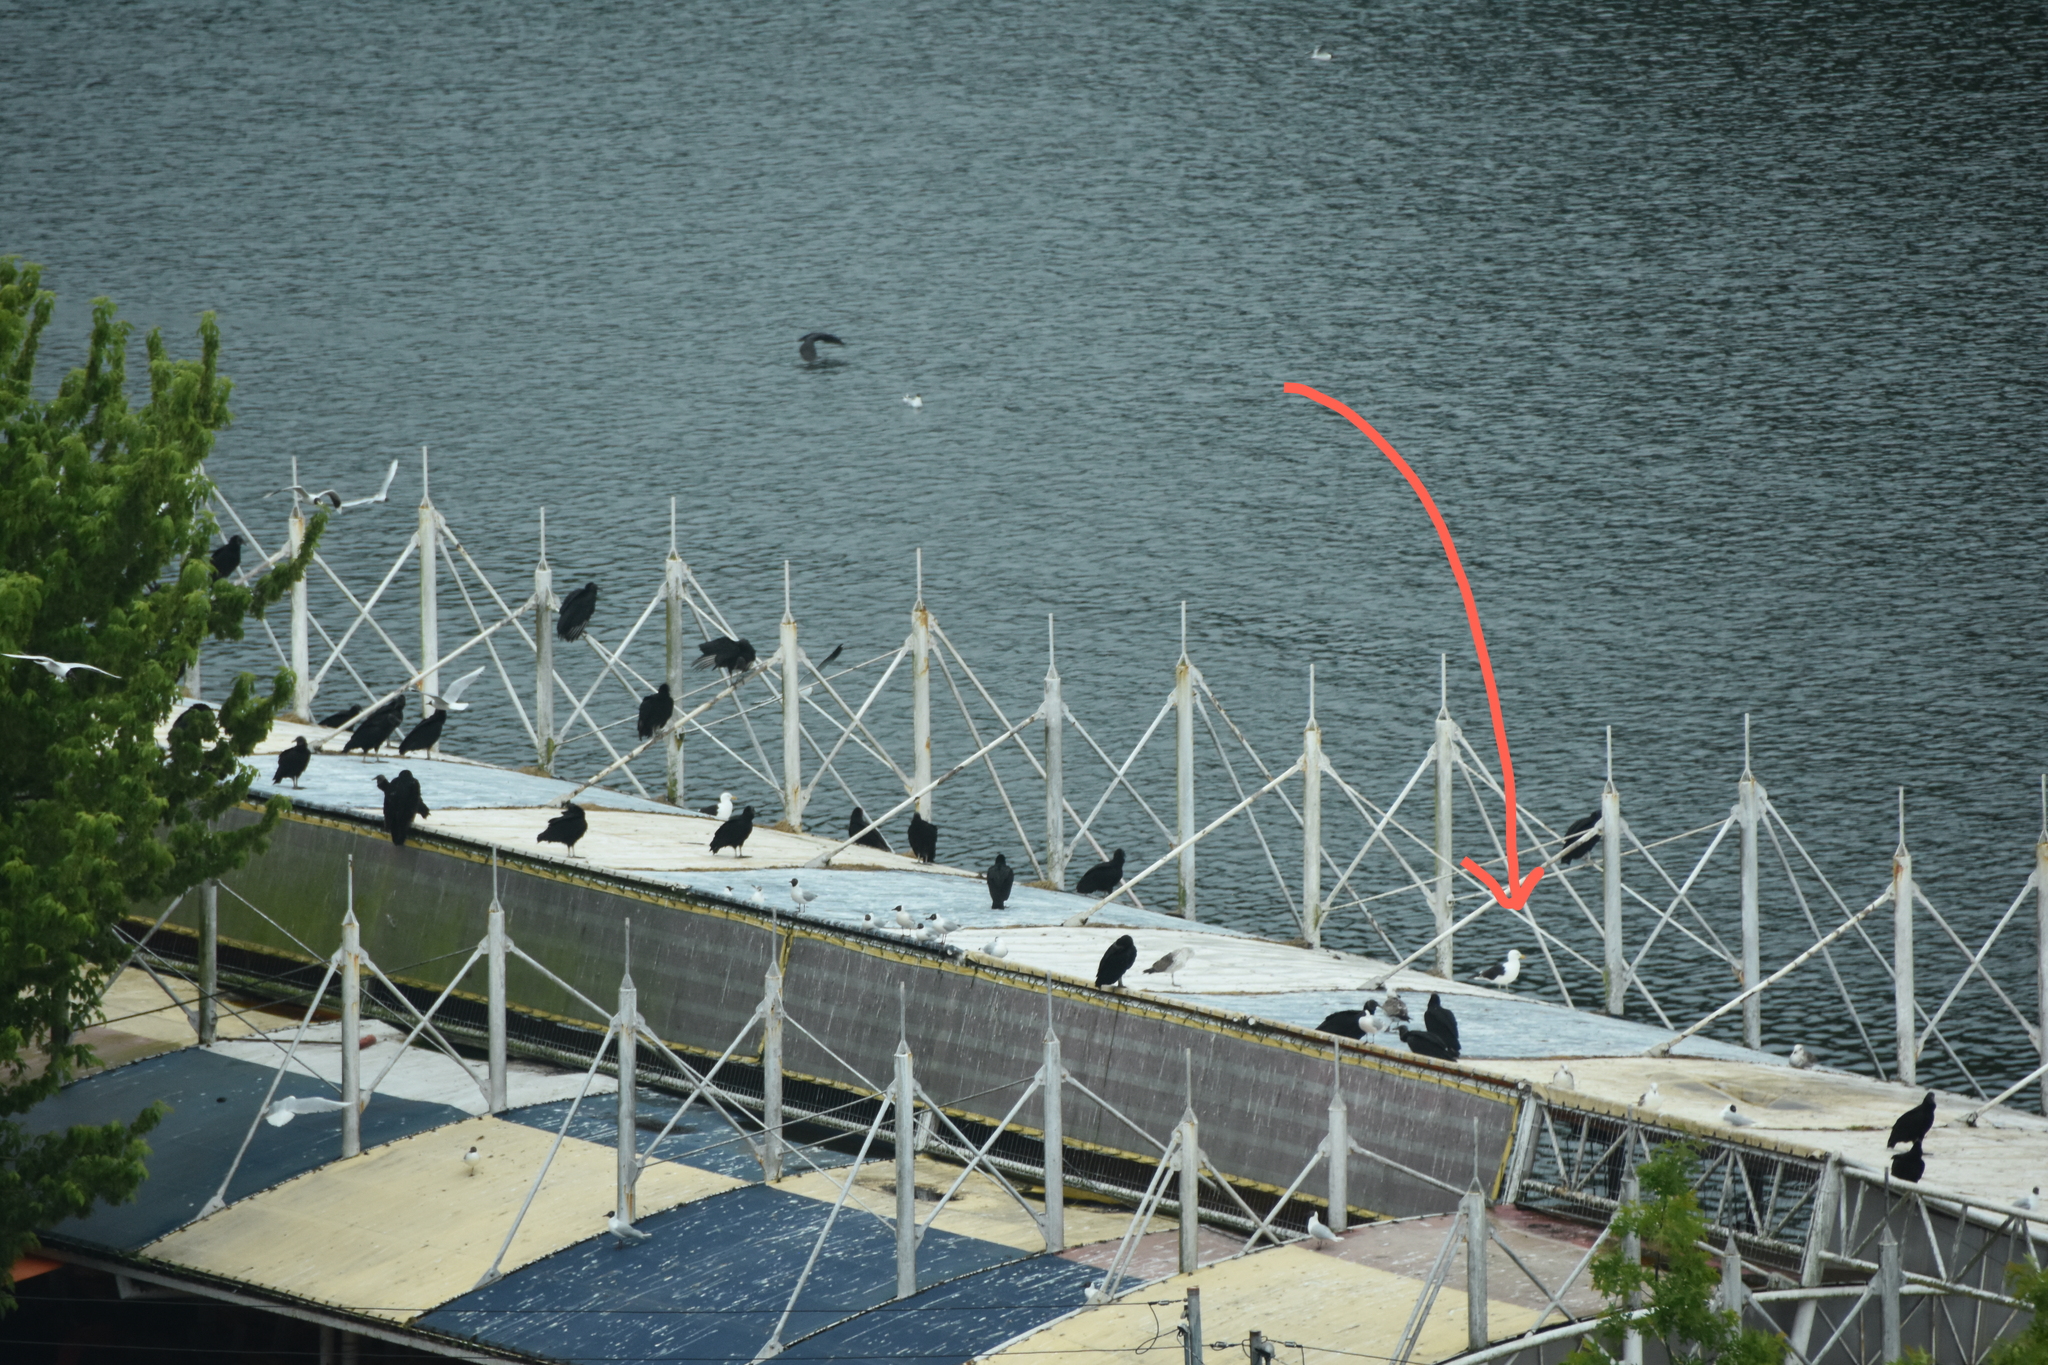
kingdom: Animalia
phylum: Chordata
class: Aves
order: Charadriiformes
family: Laridae
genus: Larus
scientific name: Larus dominicanus
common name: Kelp gull
